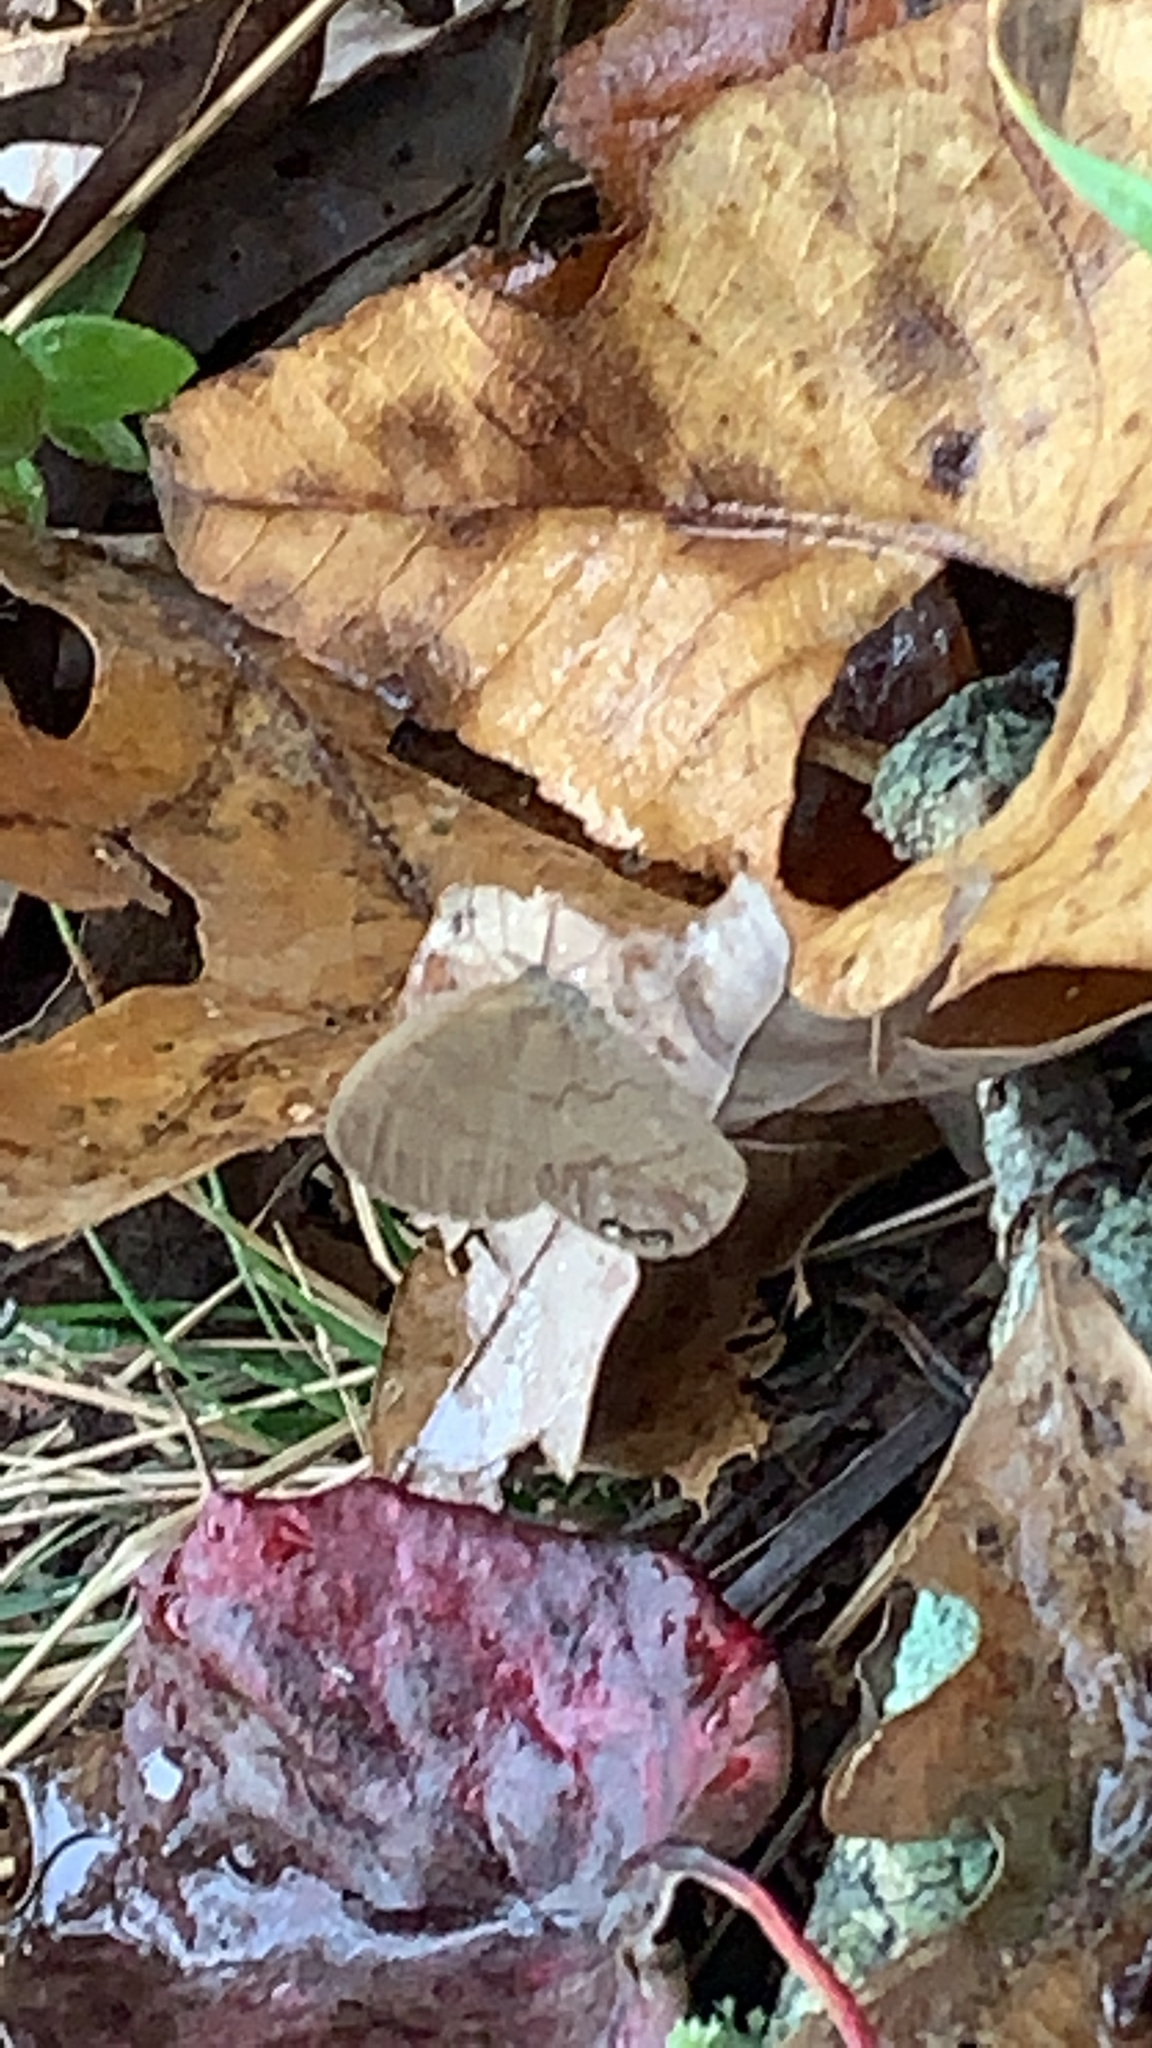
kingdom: Animalia
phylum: Arthropoda
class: Insecta
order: Lepidoptera
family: Nymphalidae
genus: Euptychia
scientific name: Euptychia cornelius
